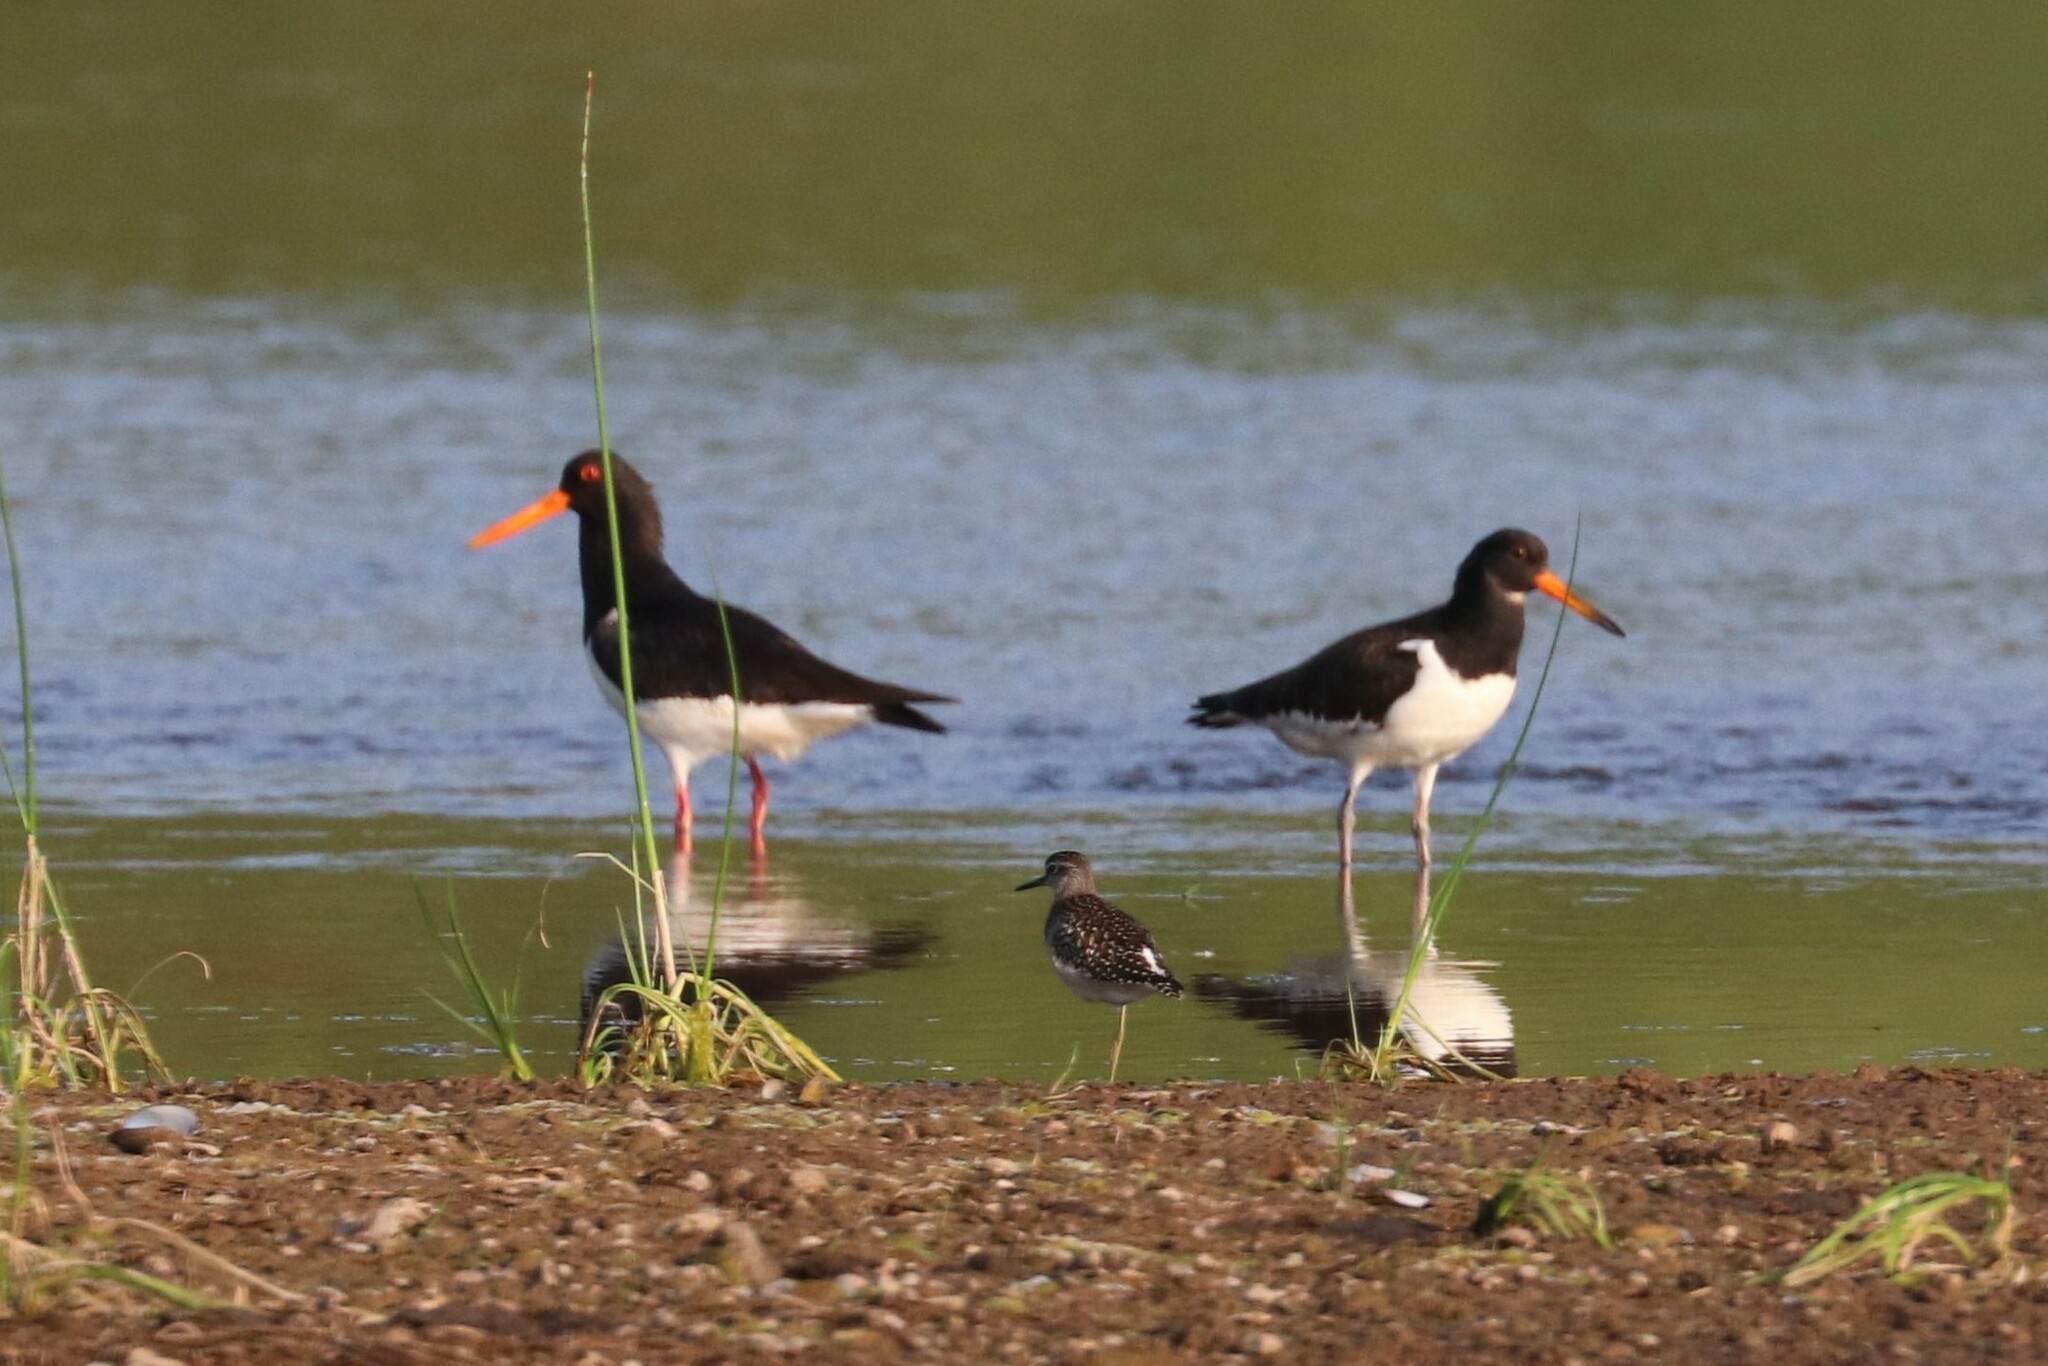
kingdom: Animalia
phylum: Chordata
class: Aves
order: Charadriiformes
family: Haematopodidae
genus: Haematopus
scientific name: Haematopus ostralegus
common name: Eurasian oystercatcher
